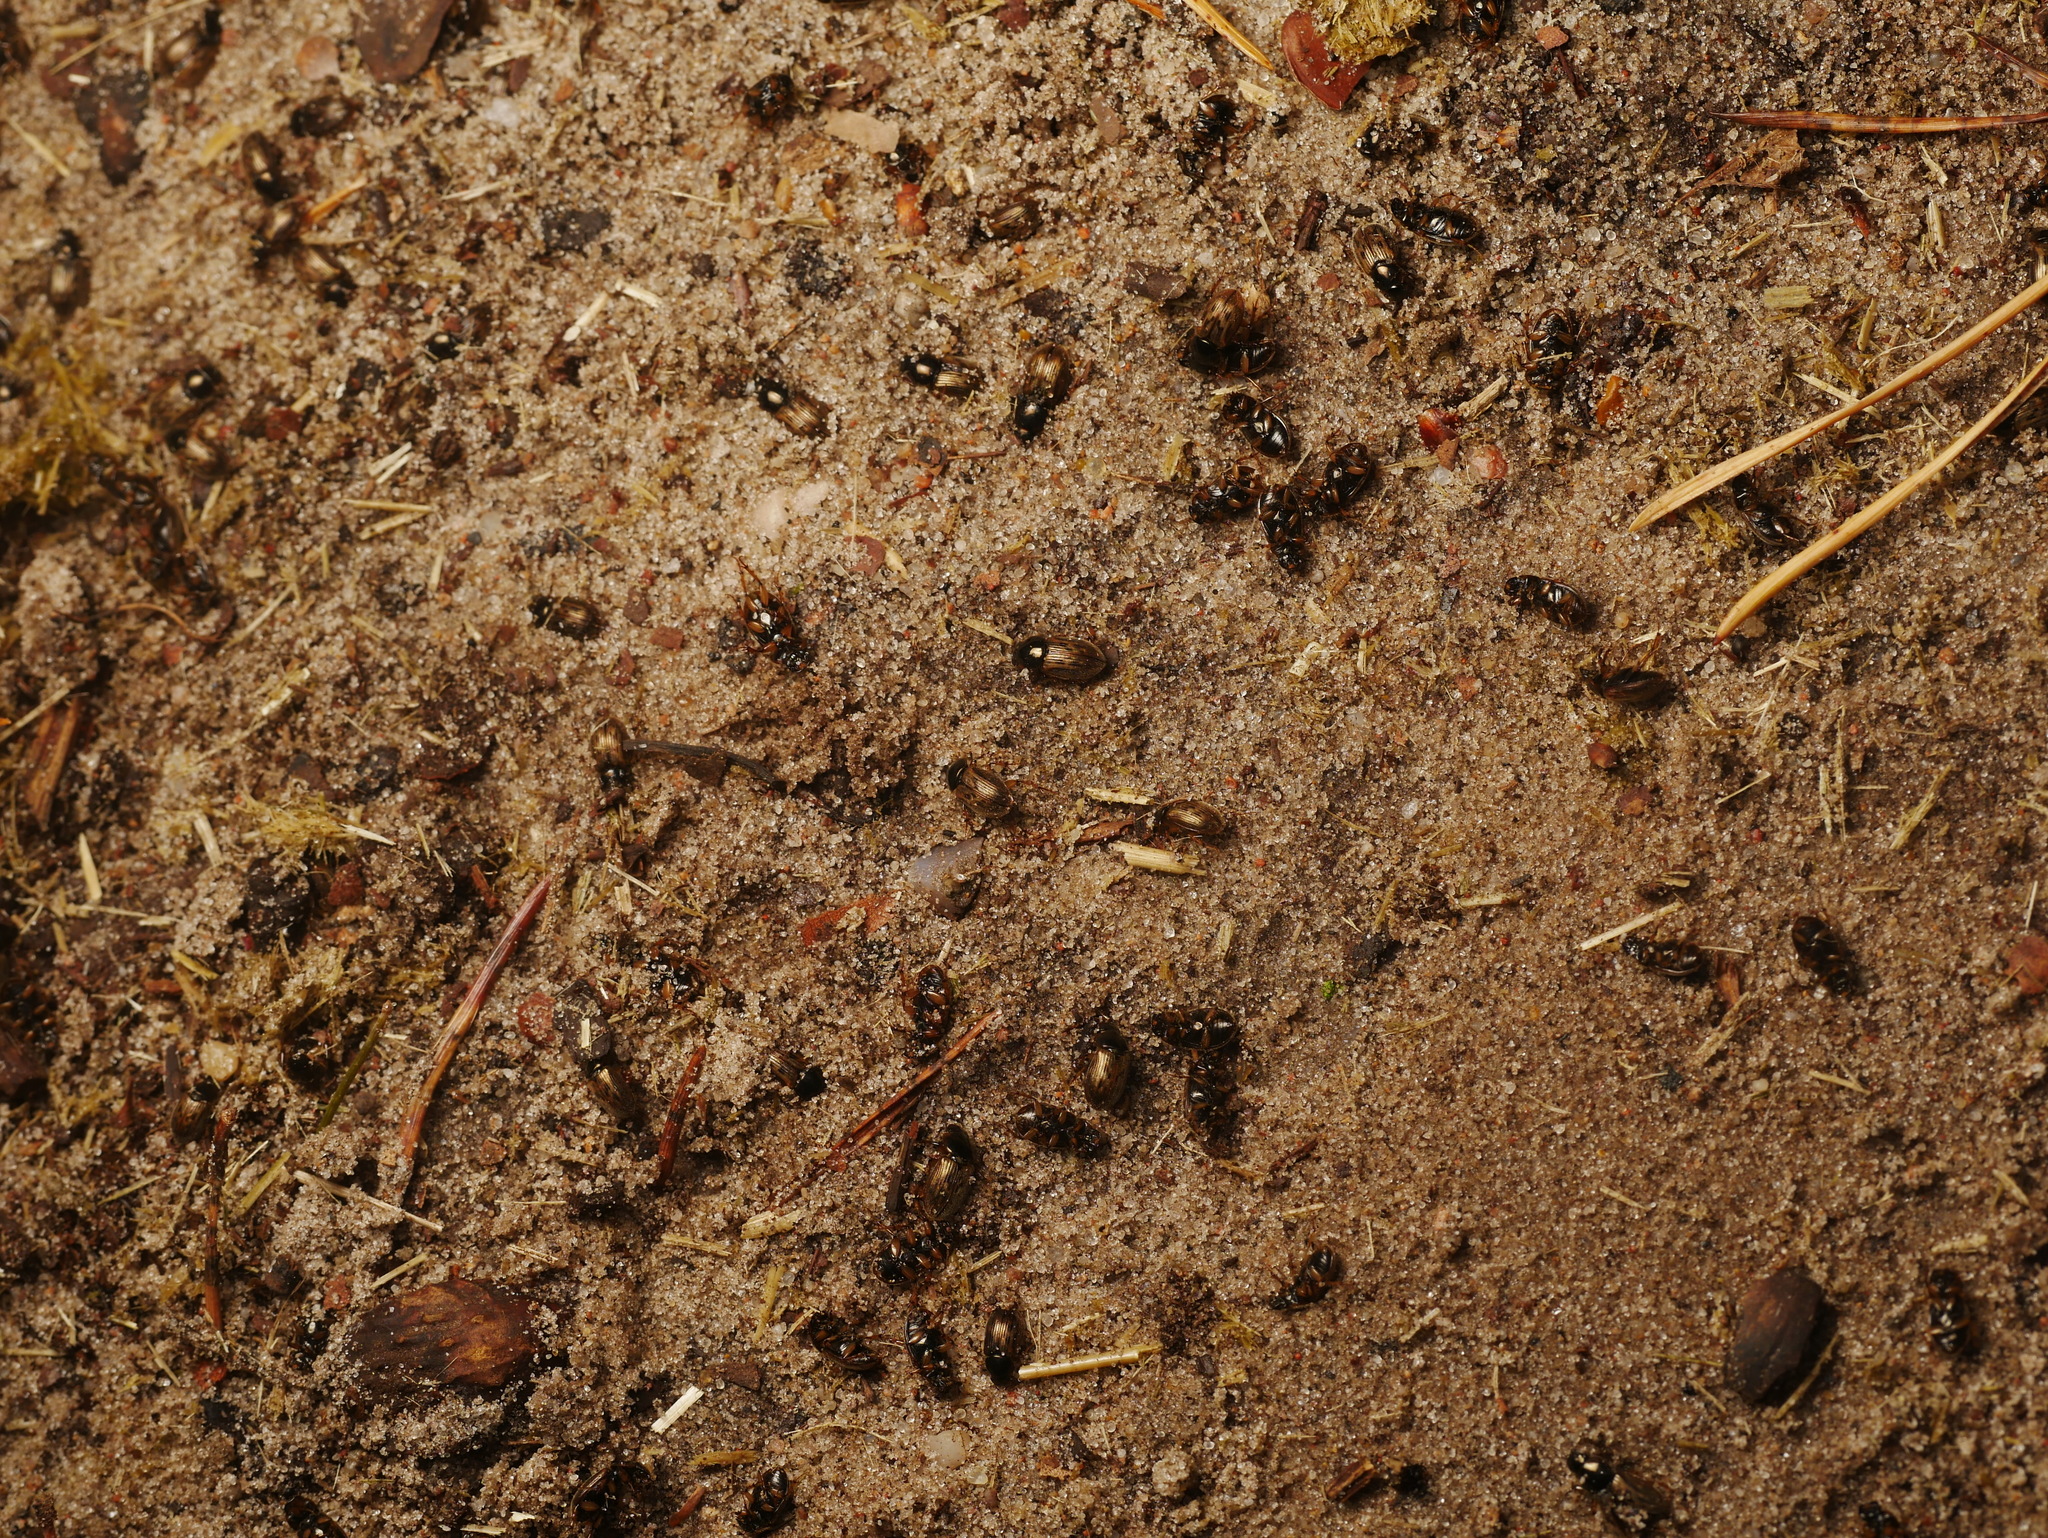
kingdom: Animalia
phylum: Arthropoda
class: Insecta
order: Coleoptera
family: Scarabaeidae
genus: Nimbus
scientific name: Nimbus contaminatus
